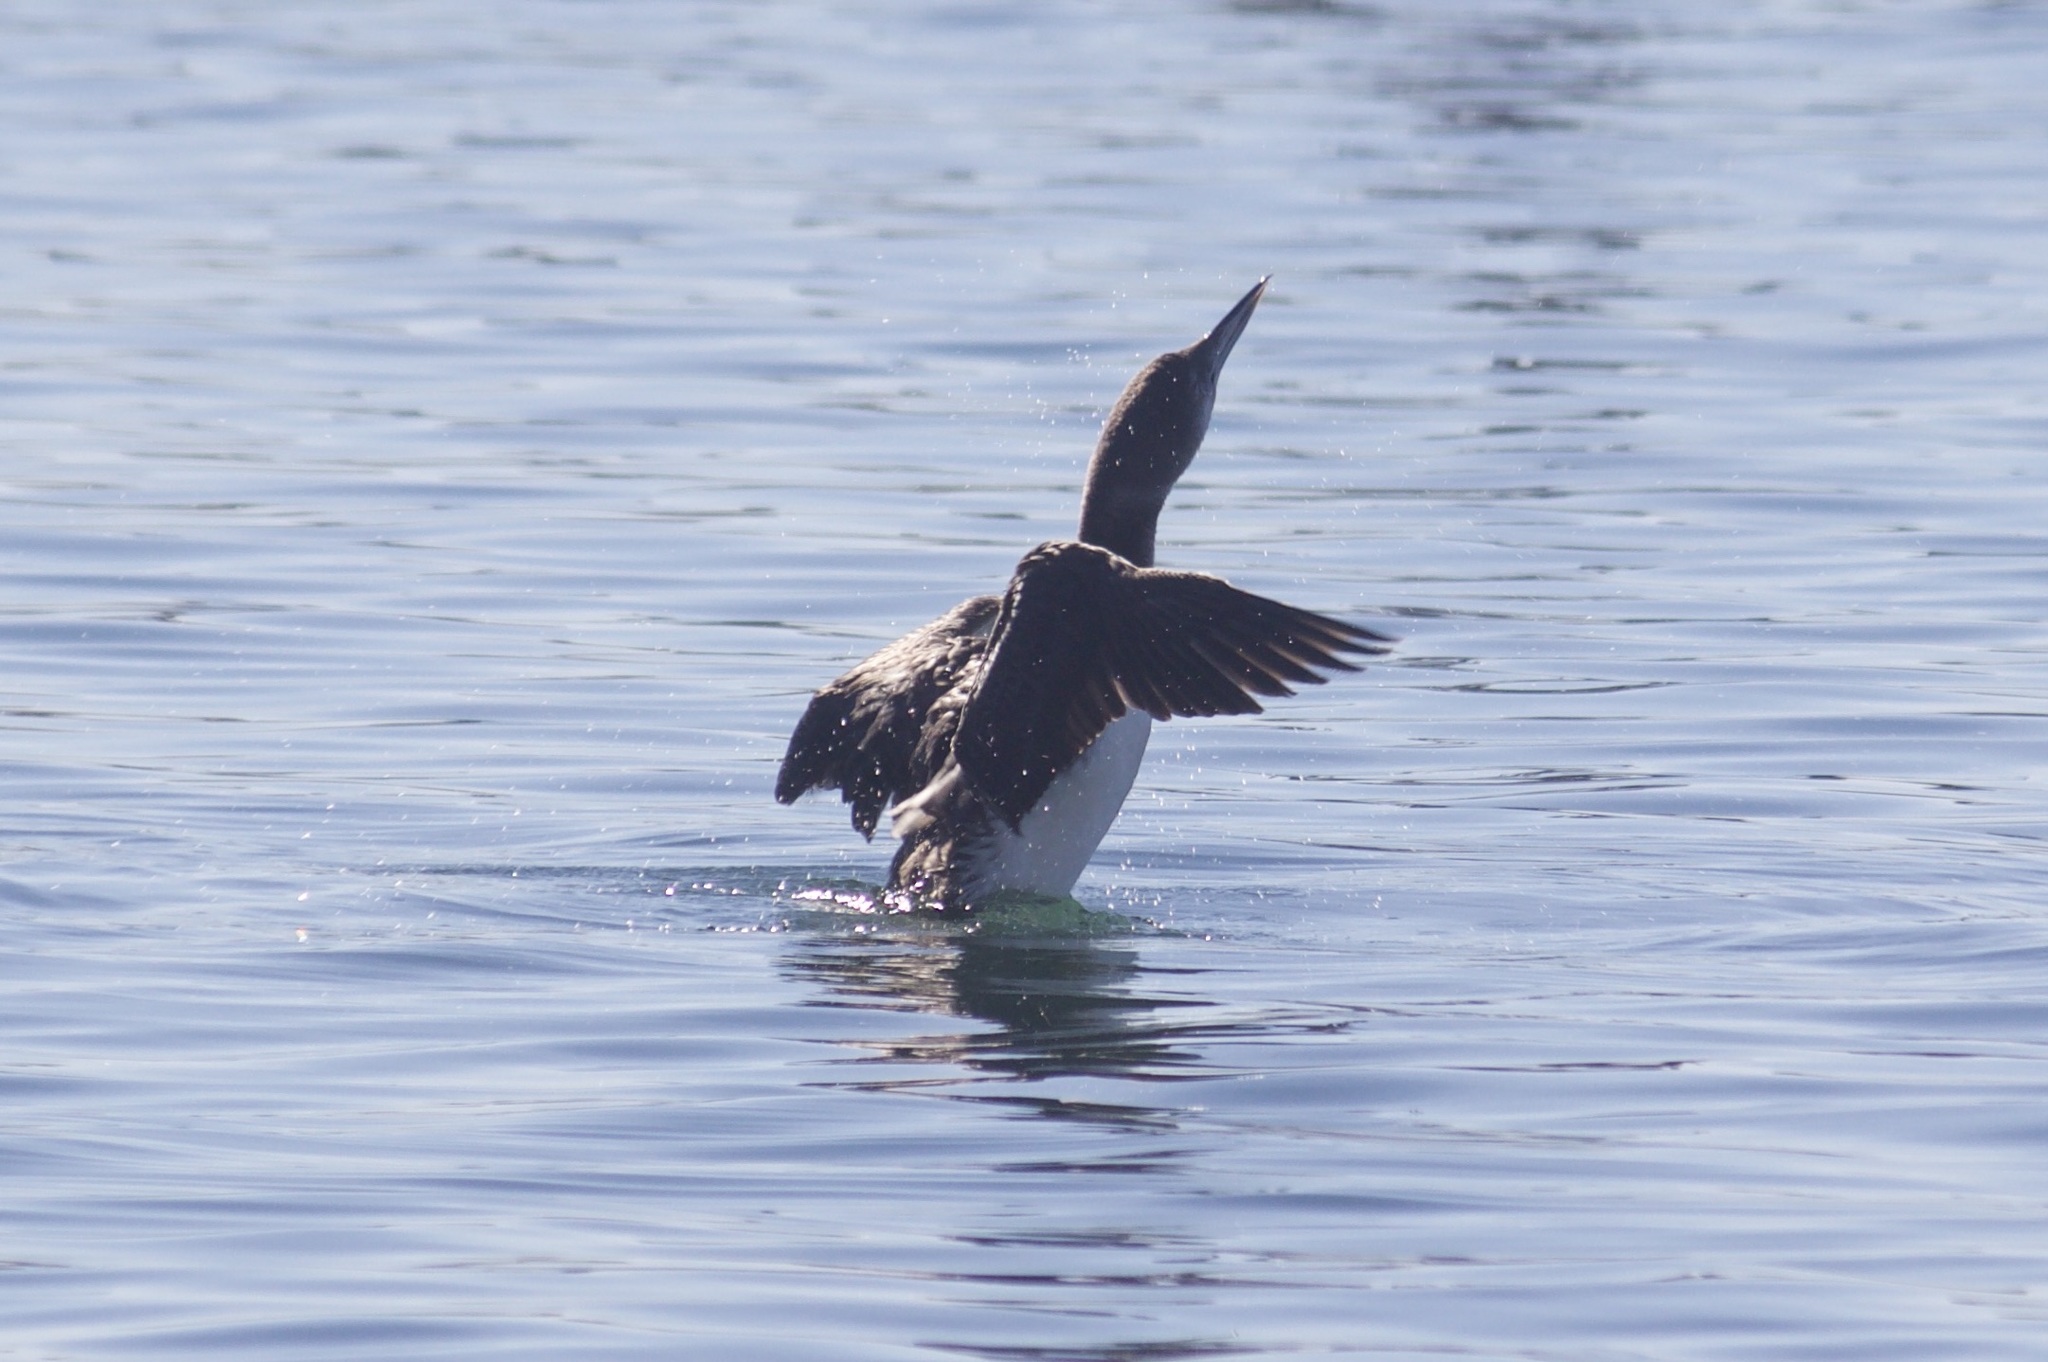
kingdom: Animalia
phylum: Chordata
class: Aves
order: Gaviiformes
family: Gaviidae
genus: Gavia
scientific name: Gavia immer
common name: Common loon
